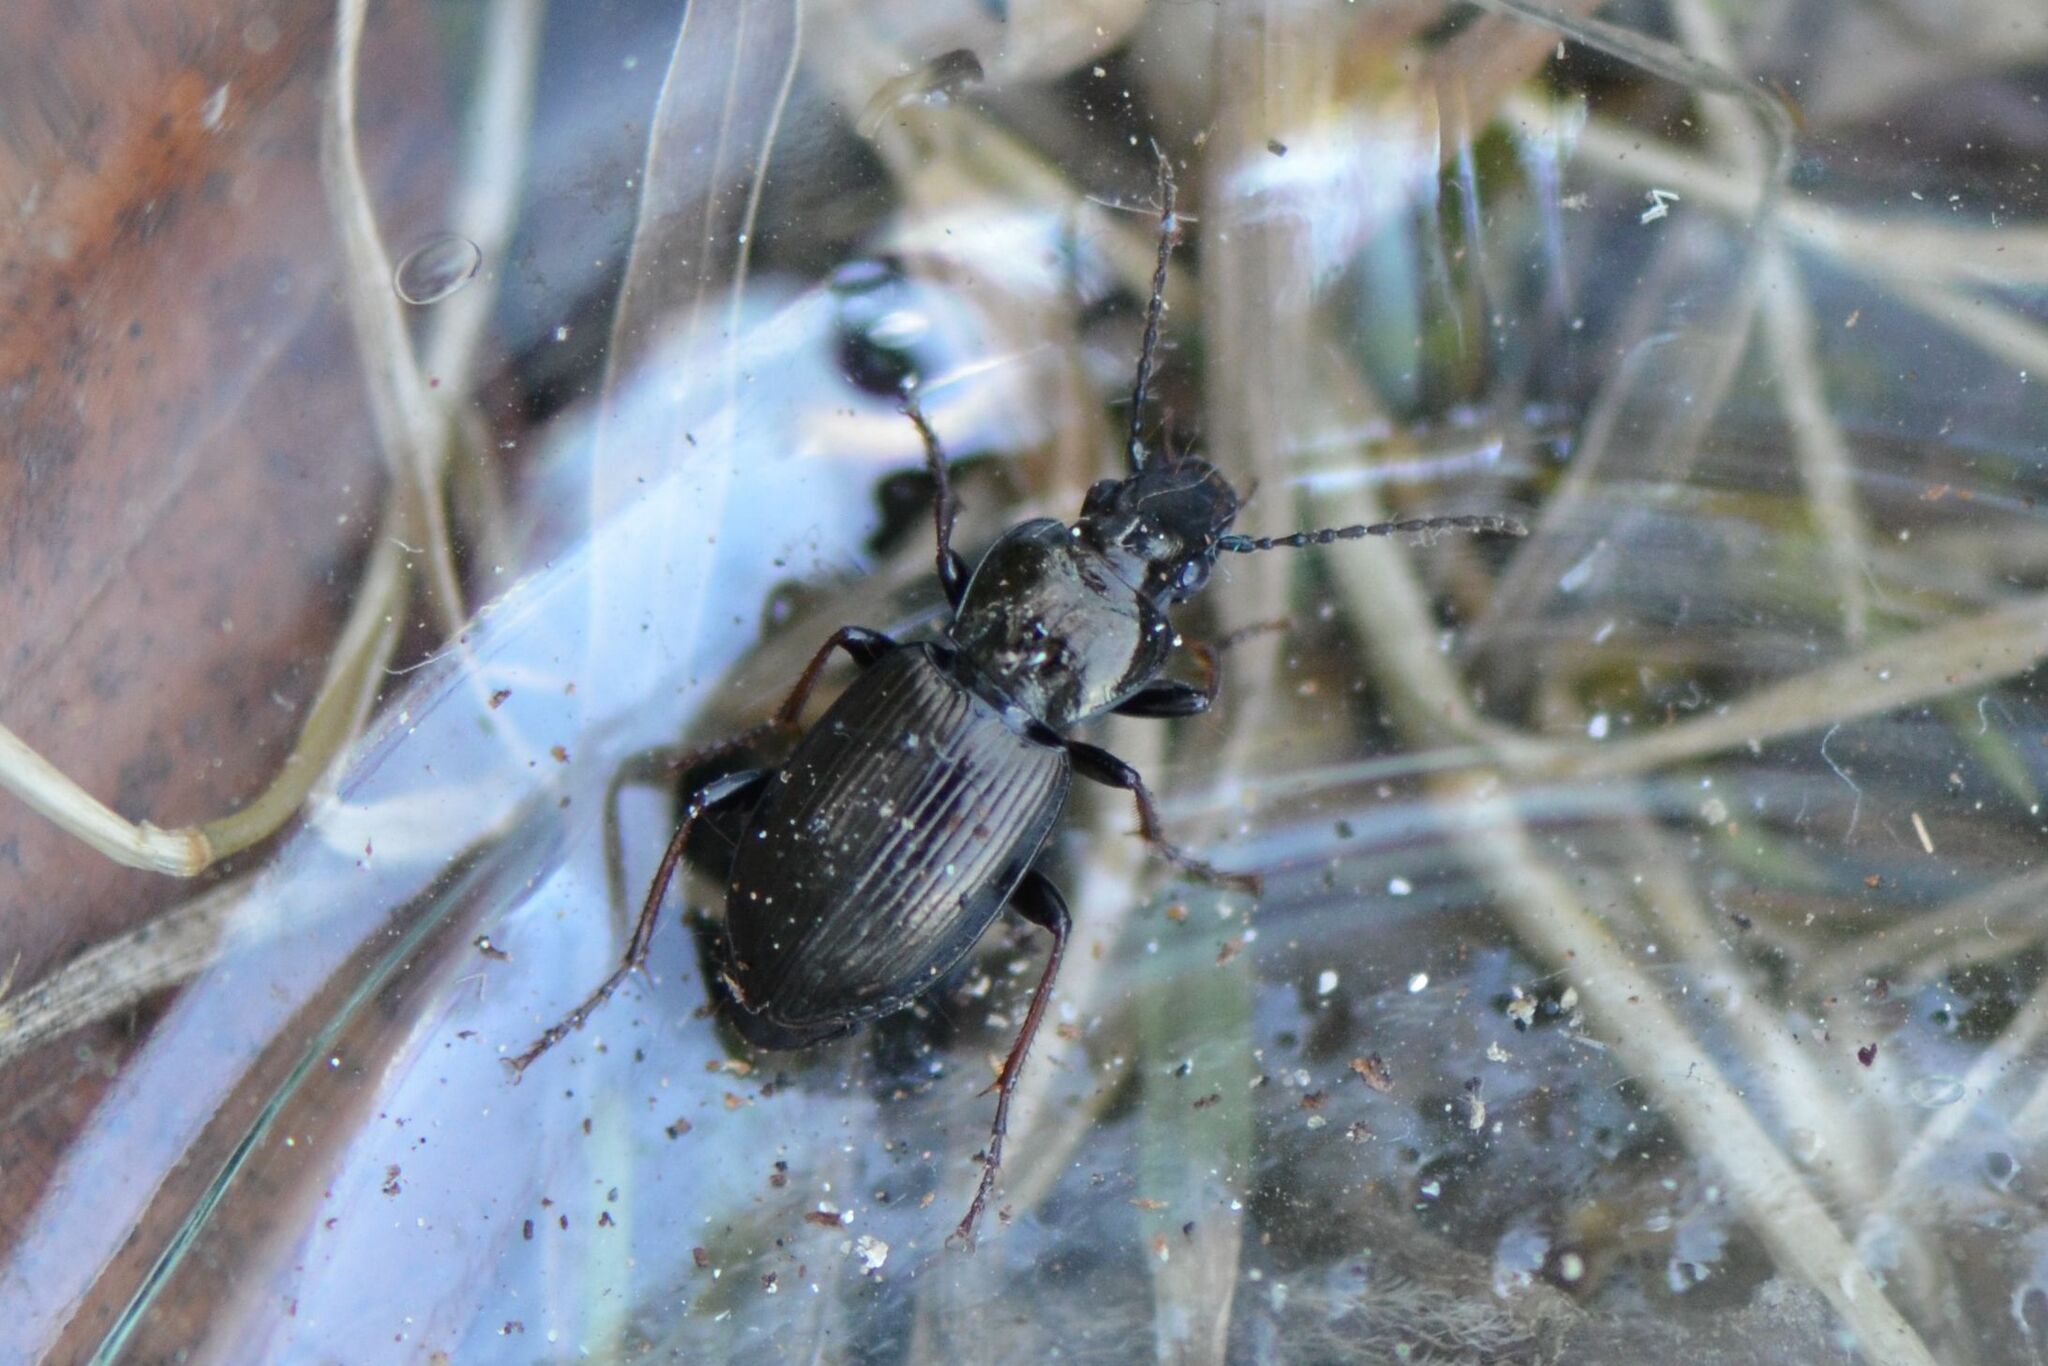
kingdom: Animalia
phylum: Arthropoda
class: Insecta
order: Coleoptera
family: Carabidae
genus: Pterostichus
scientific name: Pterostichus oblongopunctatus
